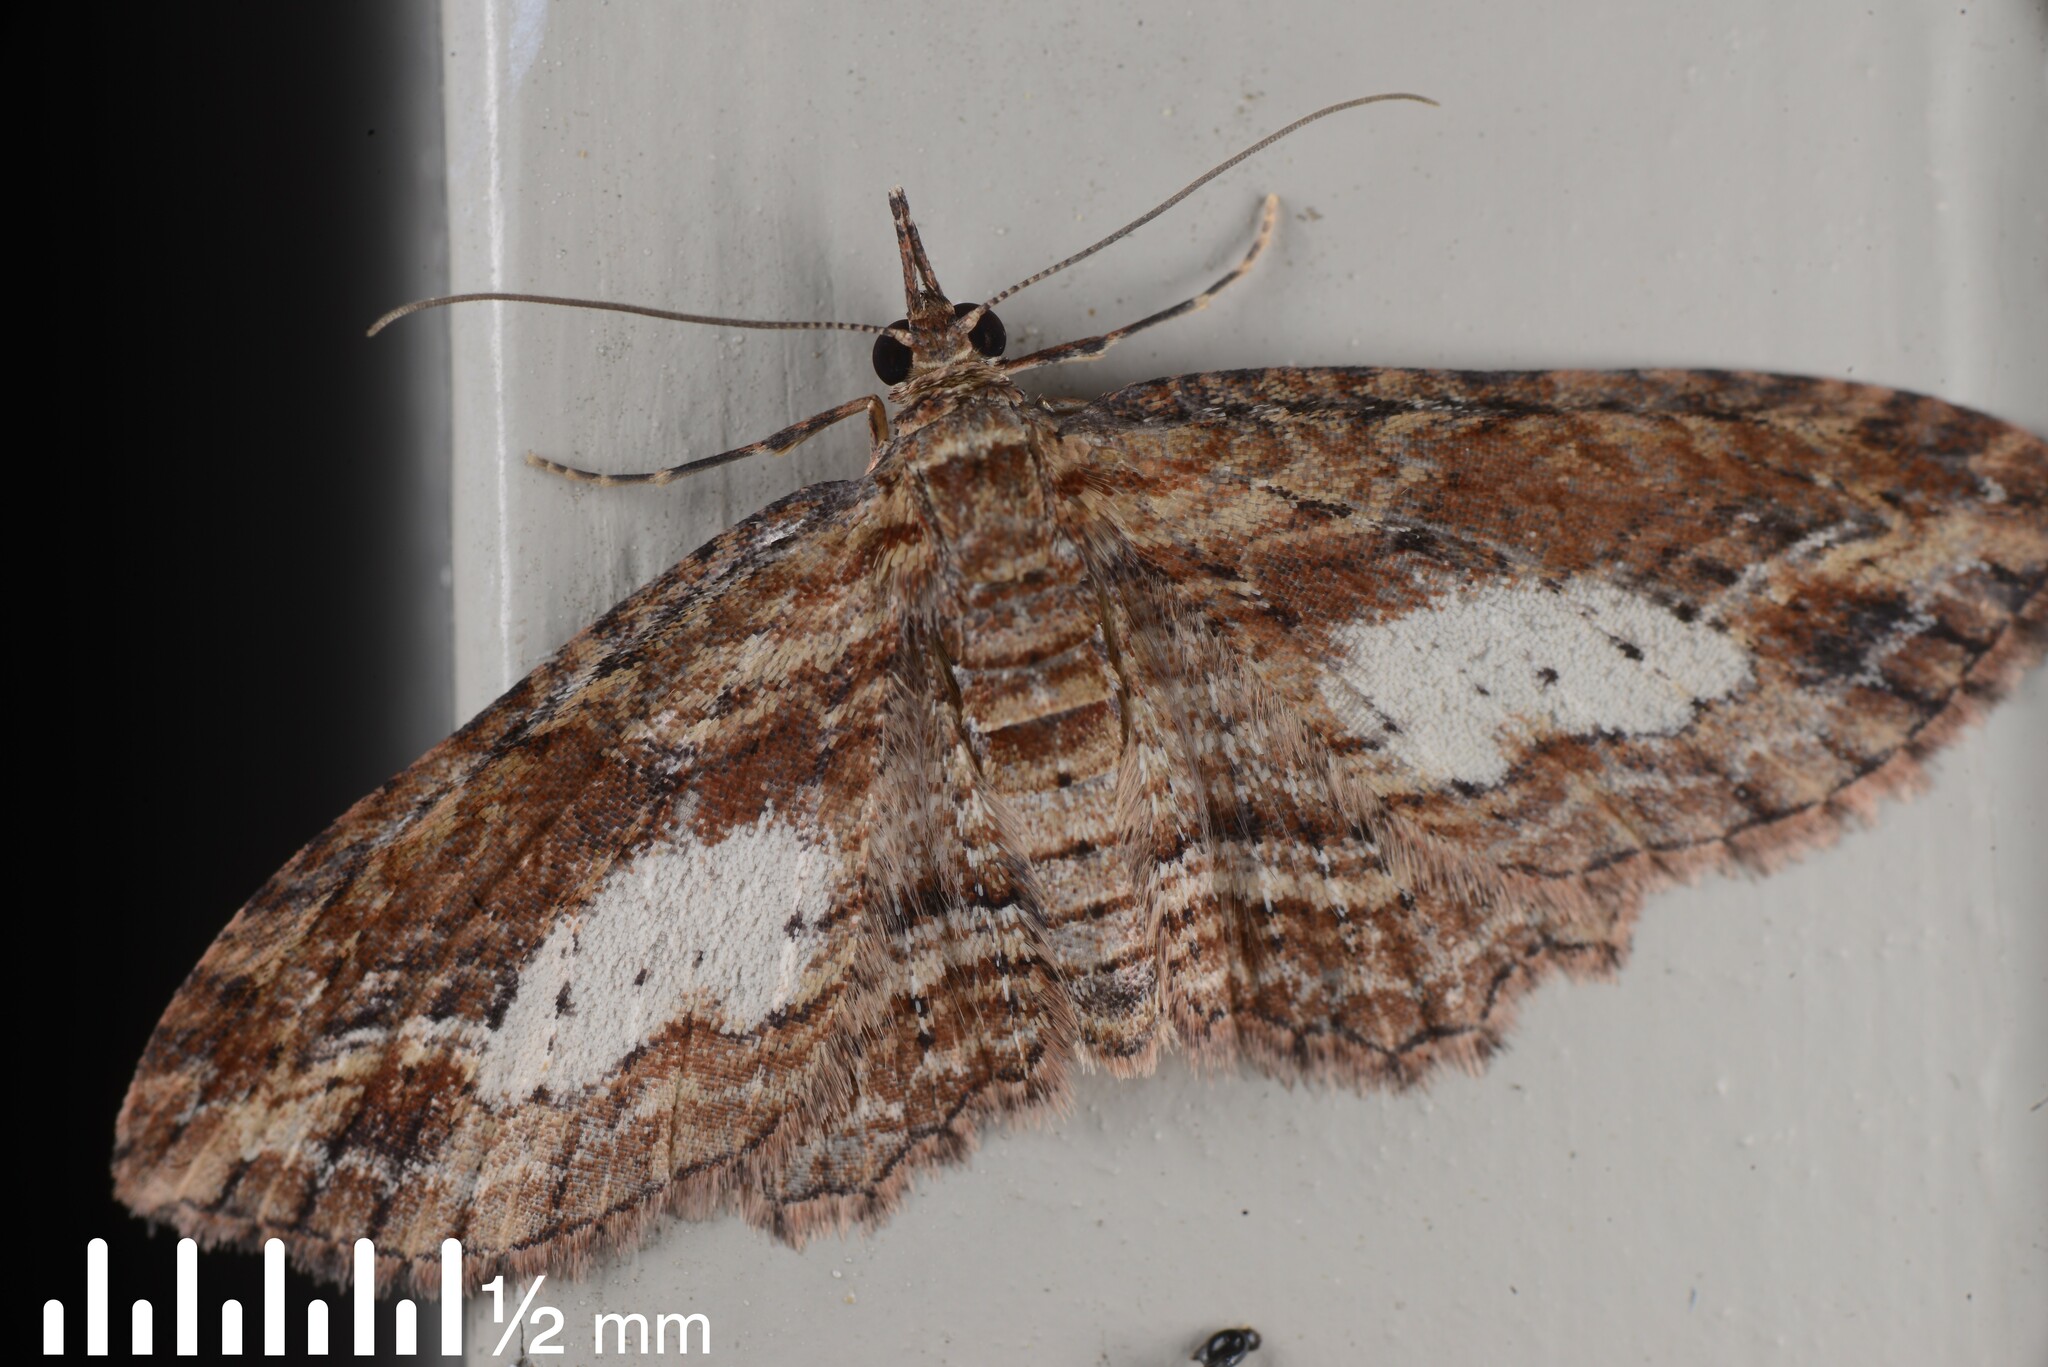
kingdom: Animalia
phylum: Arthropoda
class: Insecta
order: Lepidoptera
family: Geometridae
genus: Chloroclystis
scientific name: Chloroclystis filata
